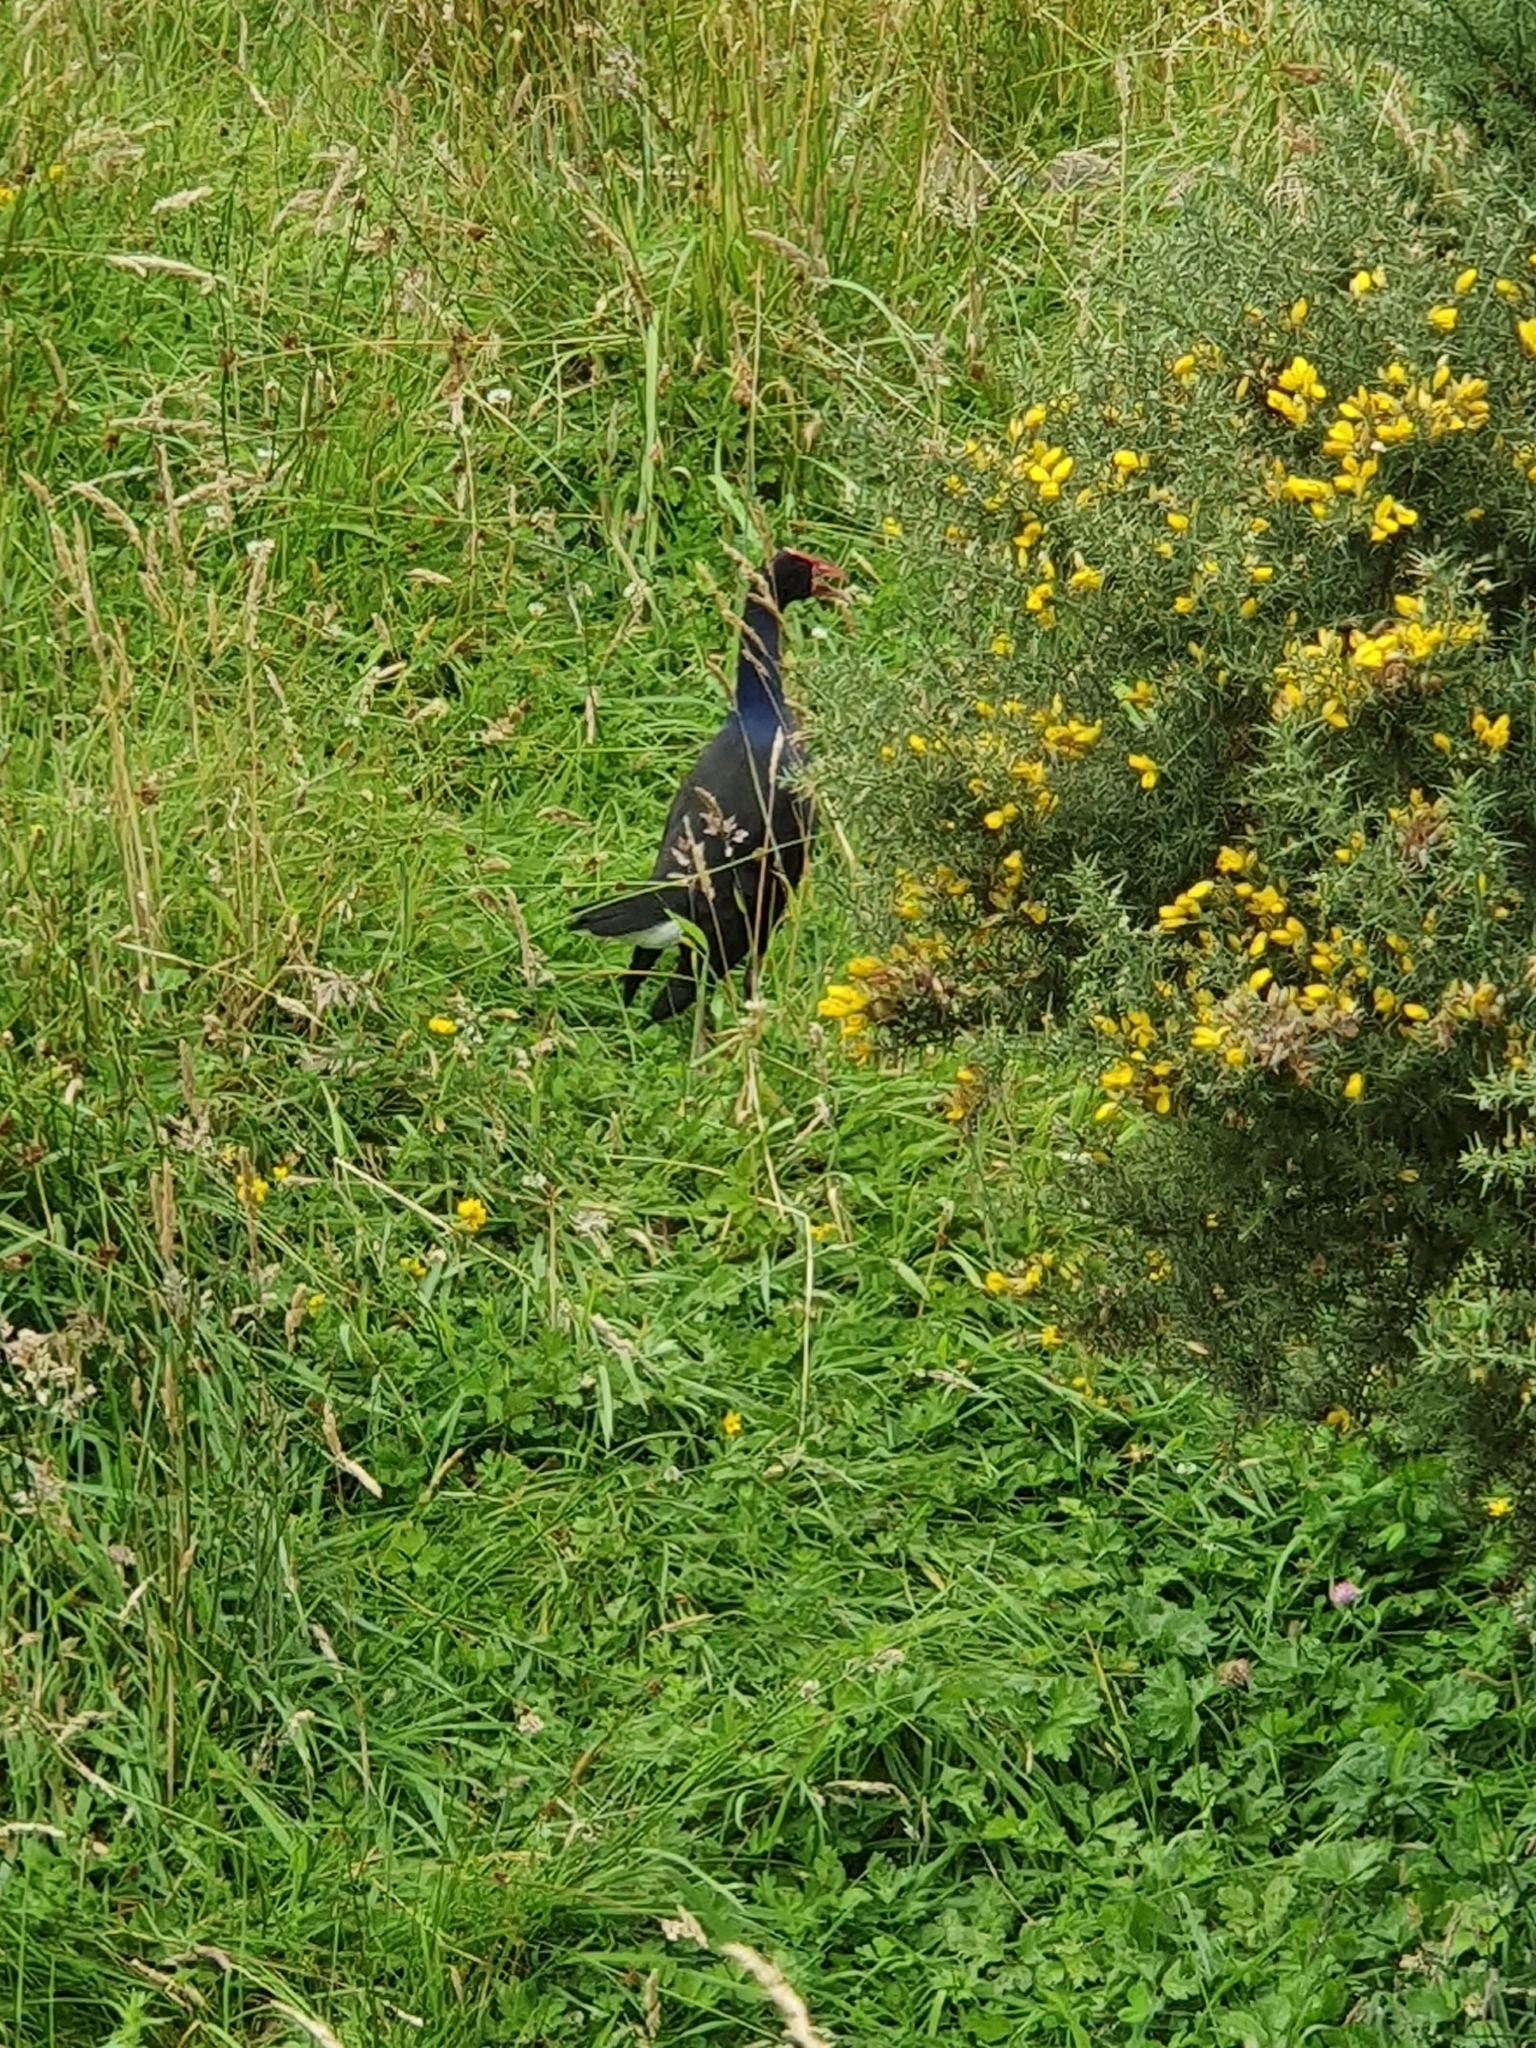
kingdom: Animalia
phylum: Chordata
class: Aves
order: Gruiformes
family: Rallidae
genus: Porphyrio
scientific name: Porphyrio melanotus
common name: Australasian swamphen
